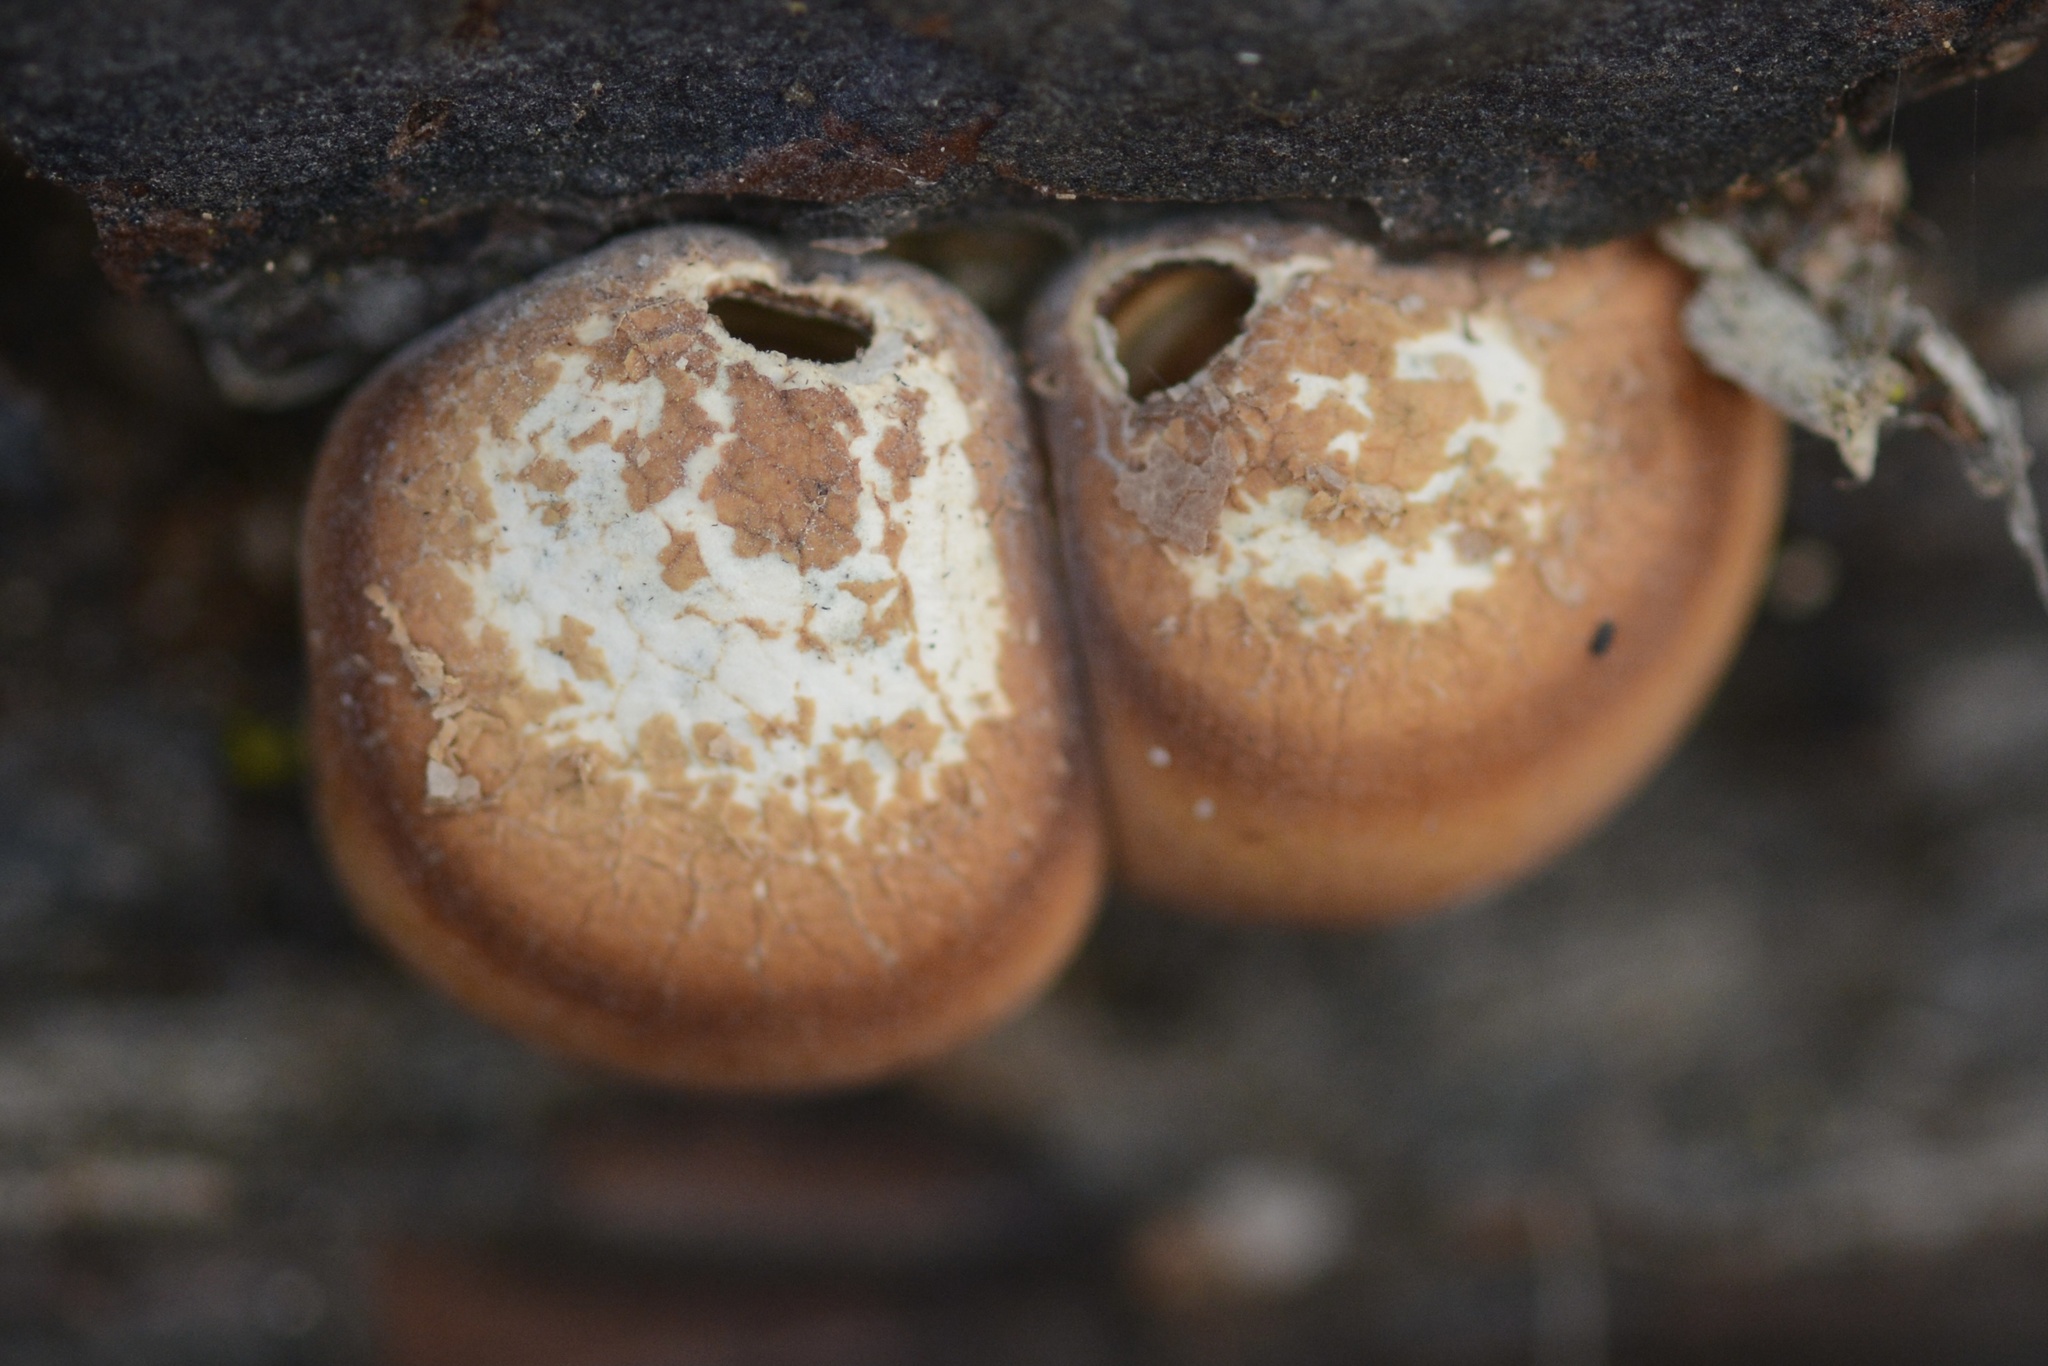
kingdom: Fungi
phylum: Basidiomycota
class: Agaricomycetes
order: Polyporales
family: Polyporaceae
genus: Cryptoporus
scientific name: Cryptoporus volvatus
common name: Veiled polypore
